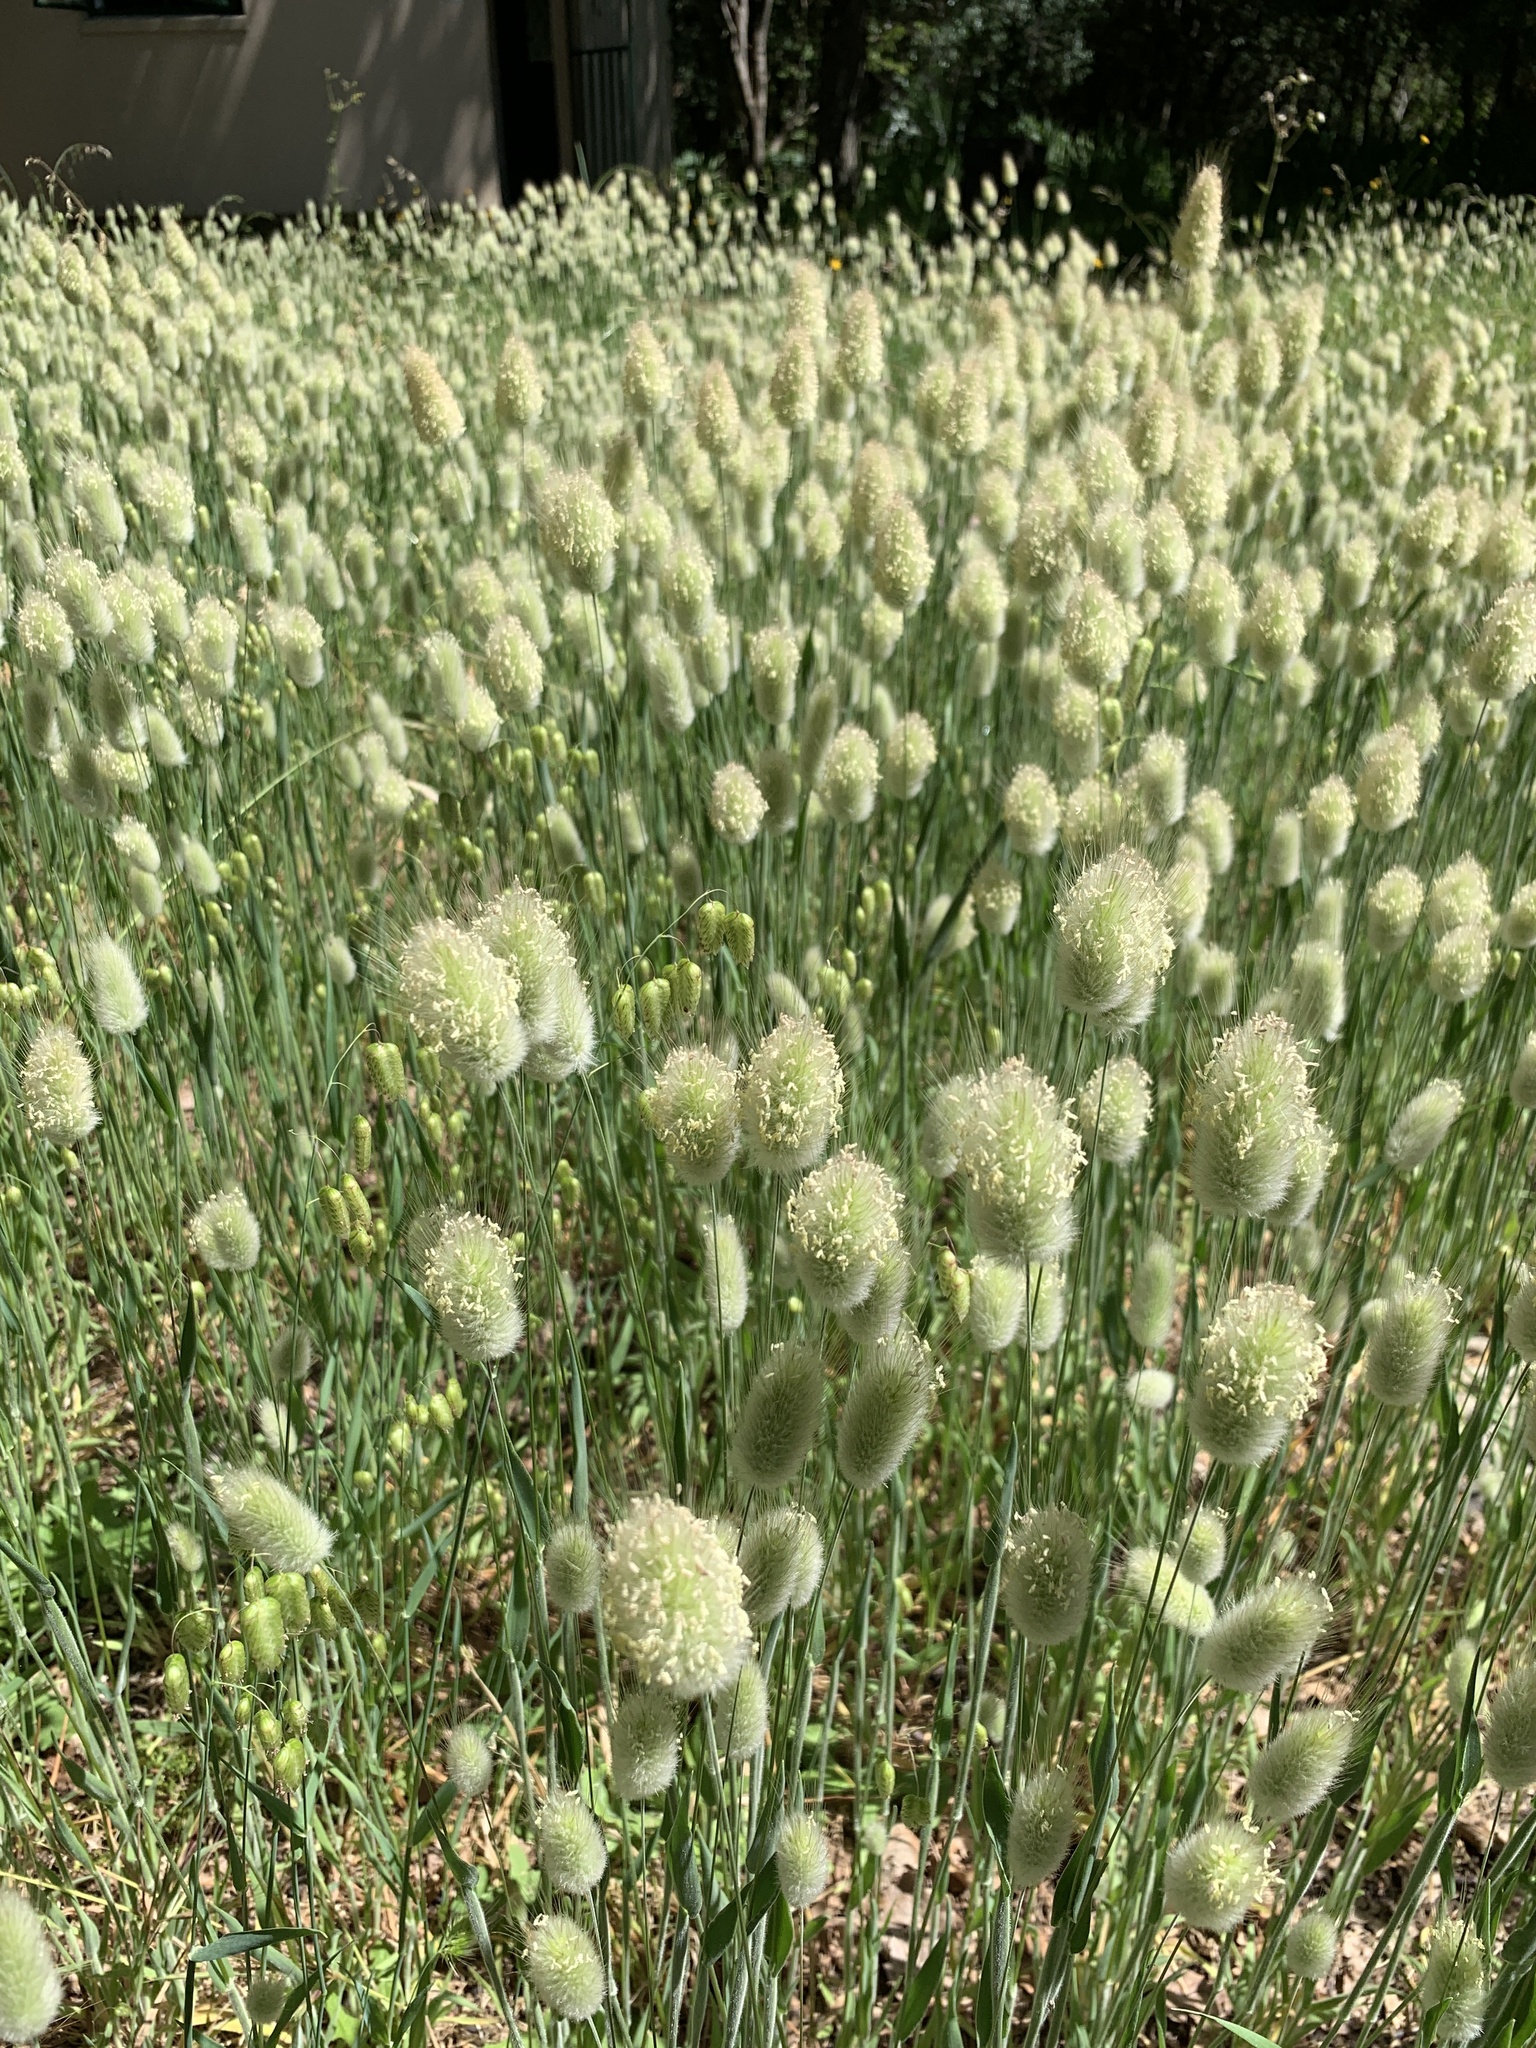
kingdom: Plantae
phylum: Tracheophyta
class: Liliopsida
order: Poales
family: Poaceae
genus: Lagurus
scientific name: Lagurus ovatus
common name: Hare's-tail
